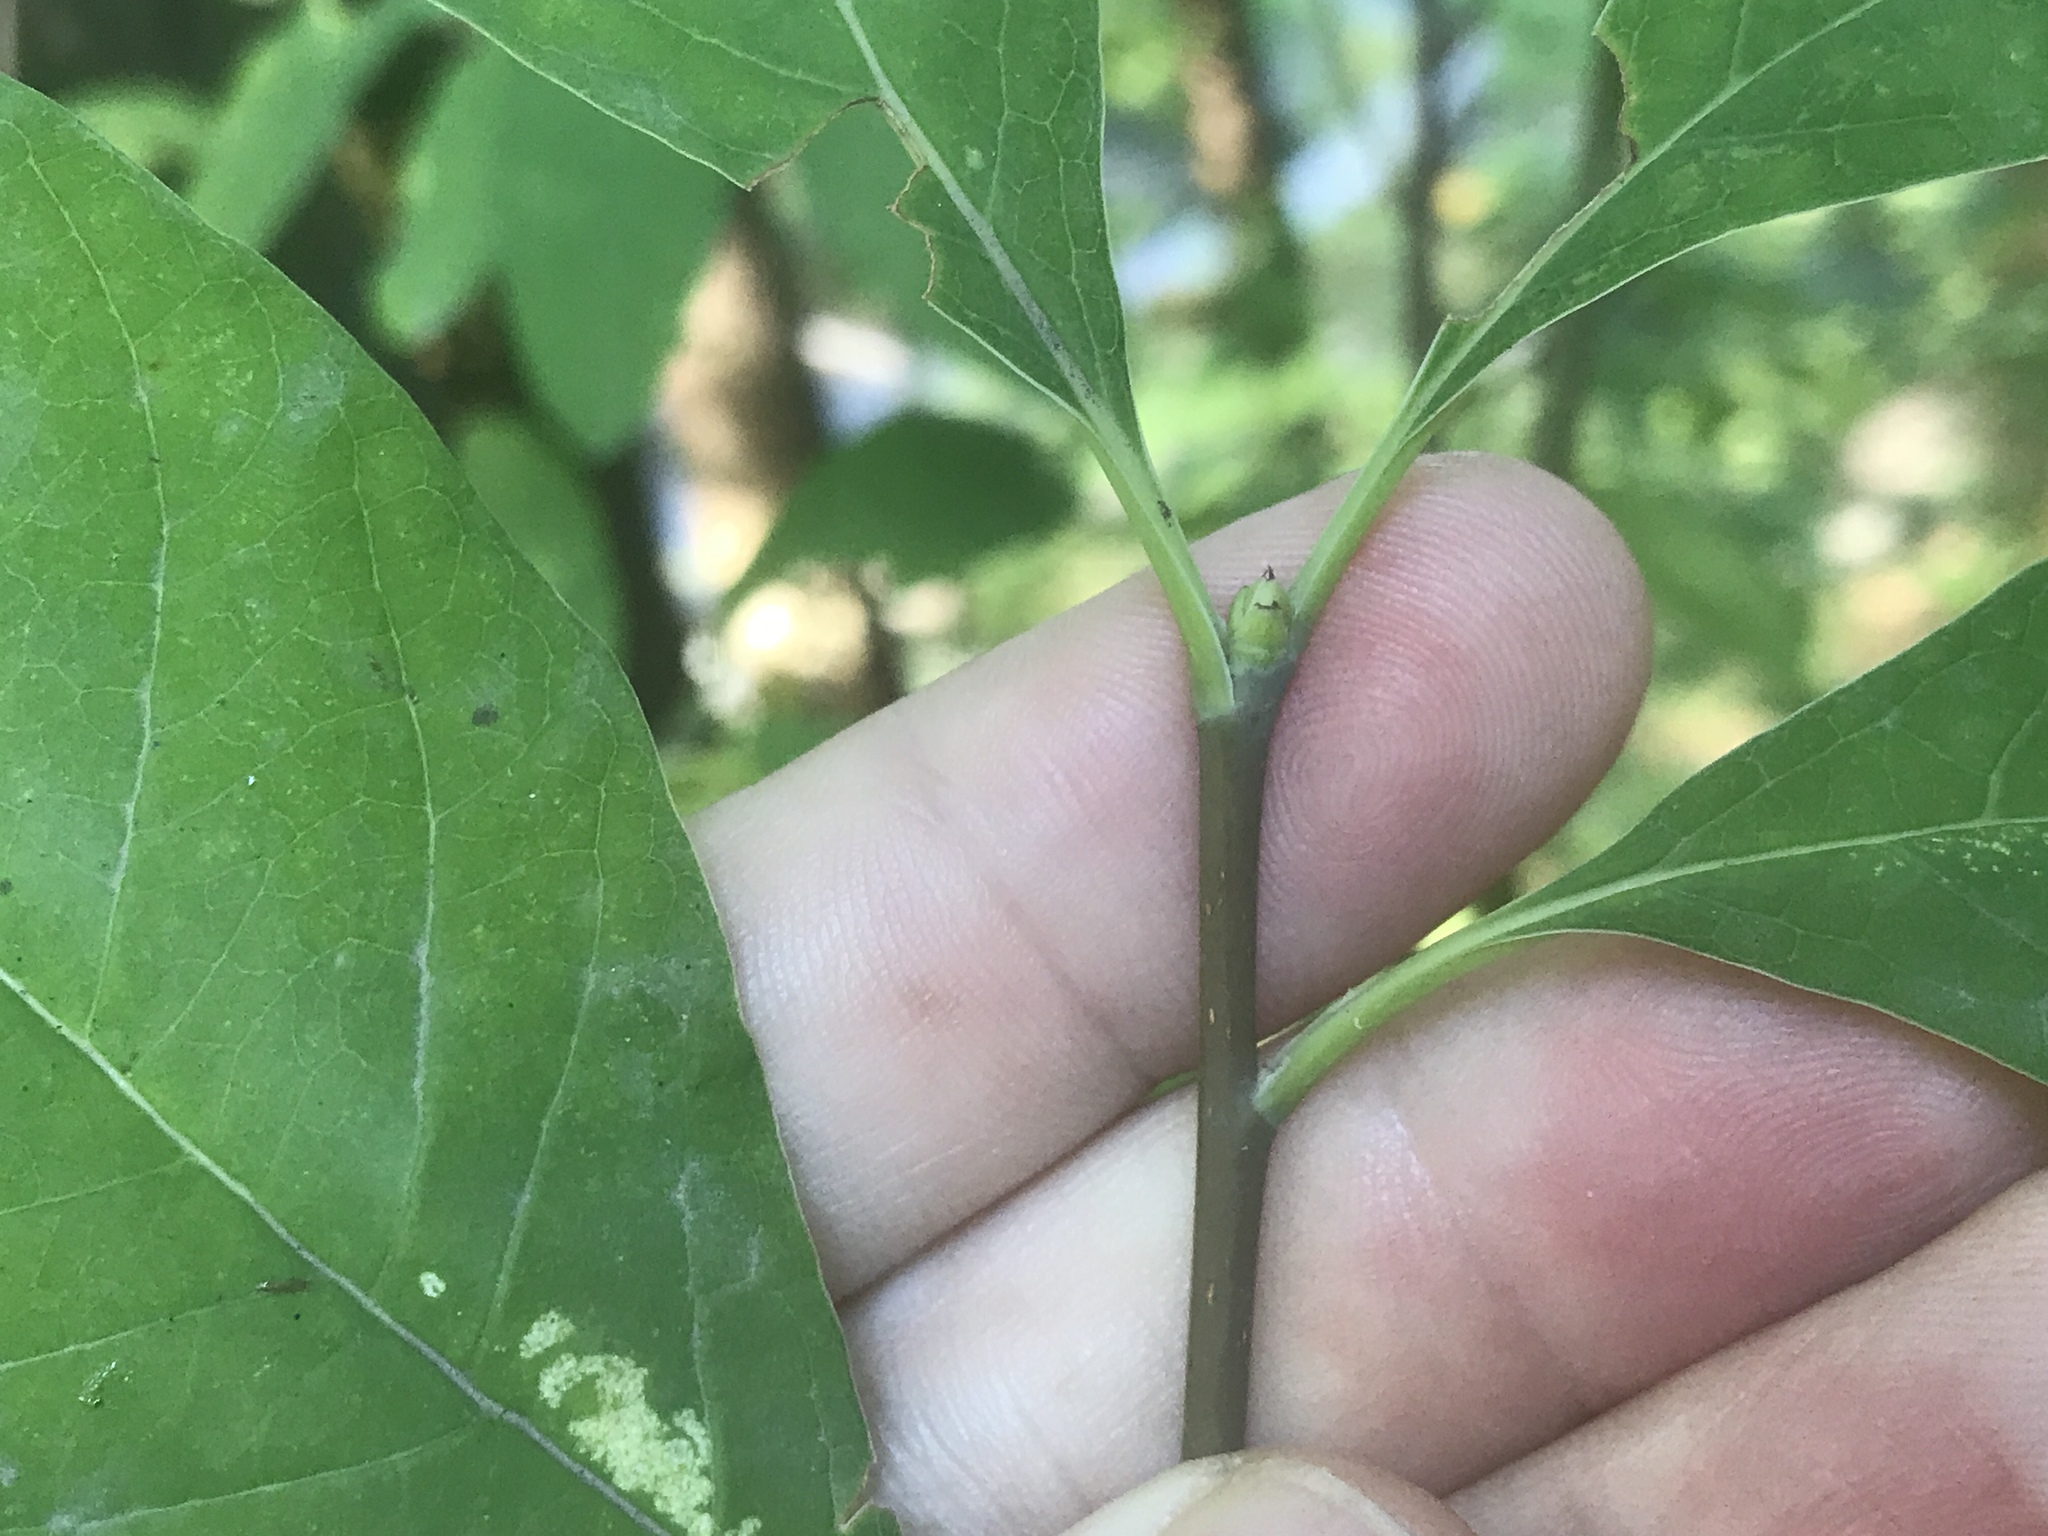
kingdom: Plantae
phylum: Tracheophyta
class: Magnoliopsida
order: Rosales
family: Rosaceae
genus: Oemleria
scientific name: Oemleria cerasiformis
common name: Osoberry
